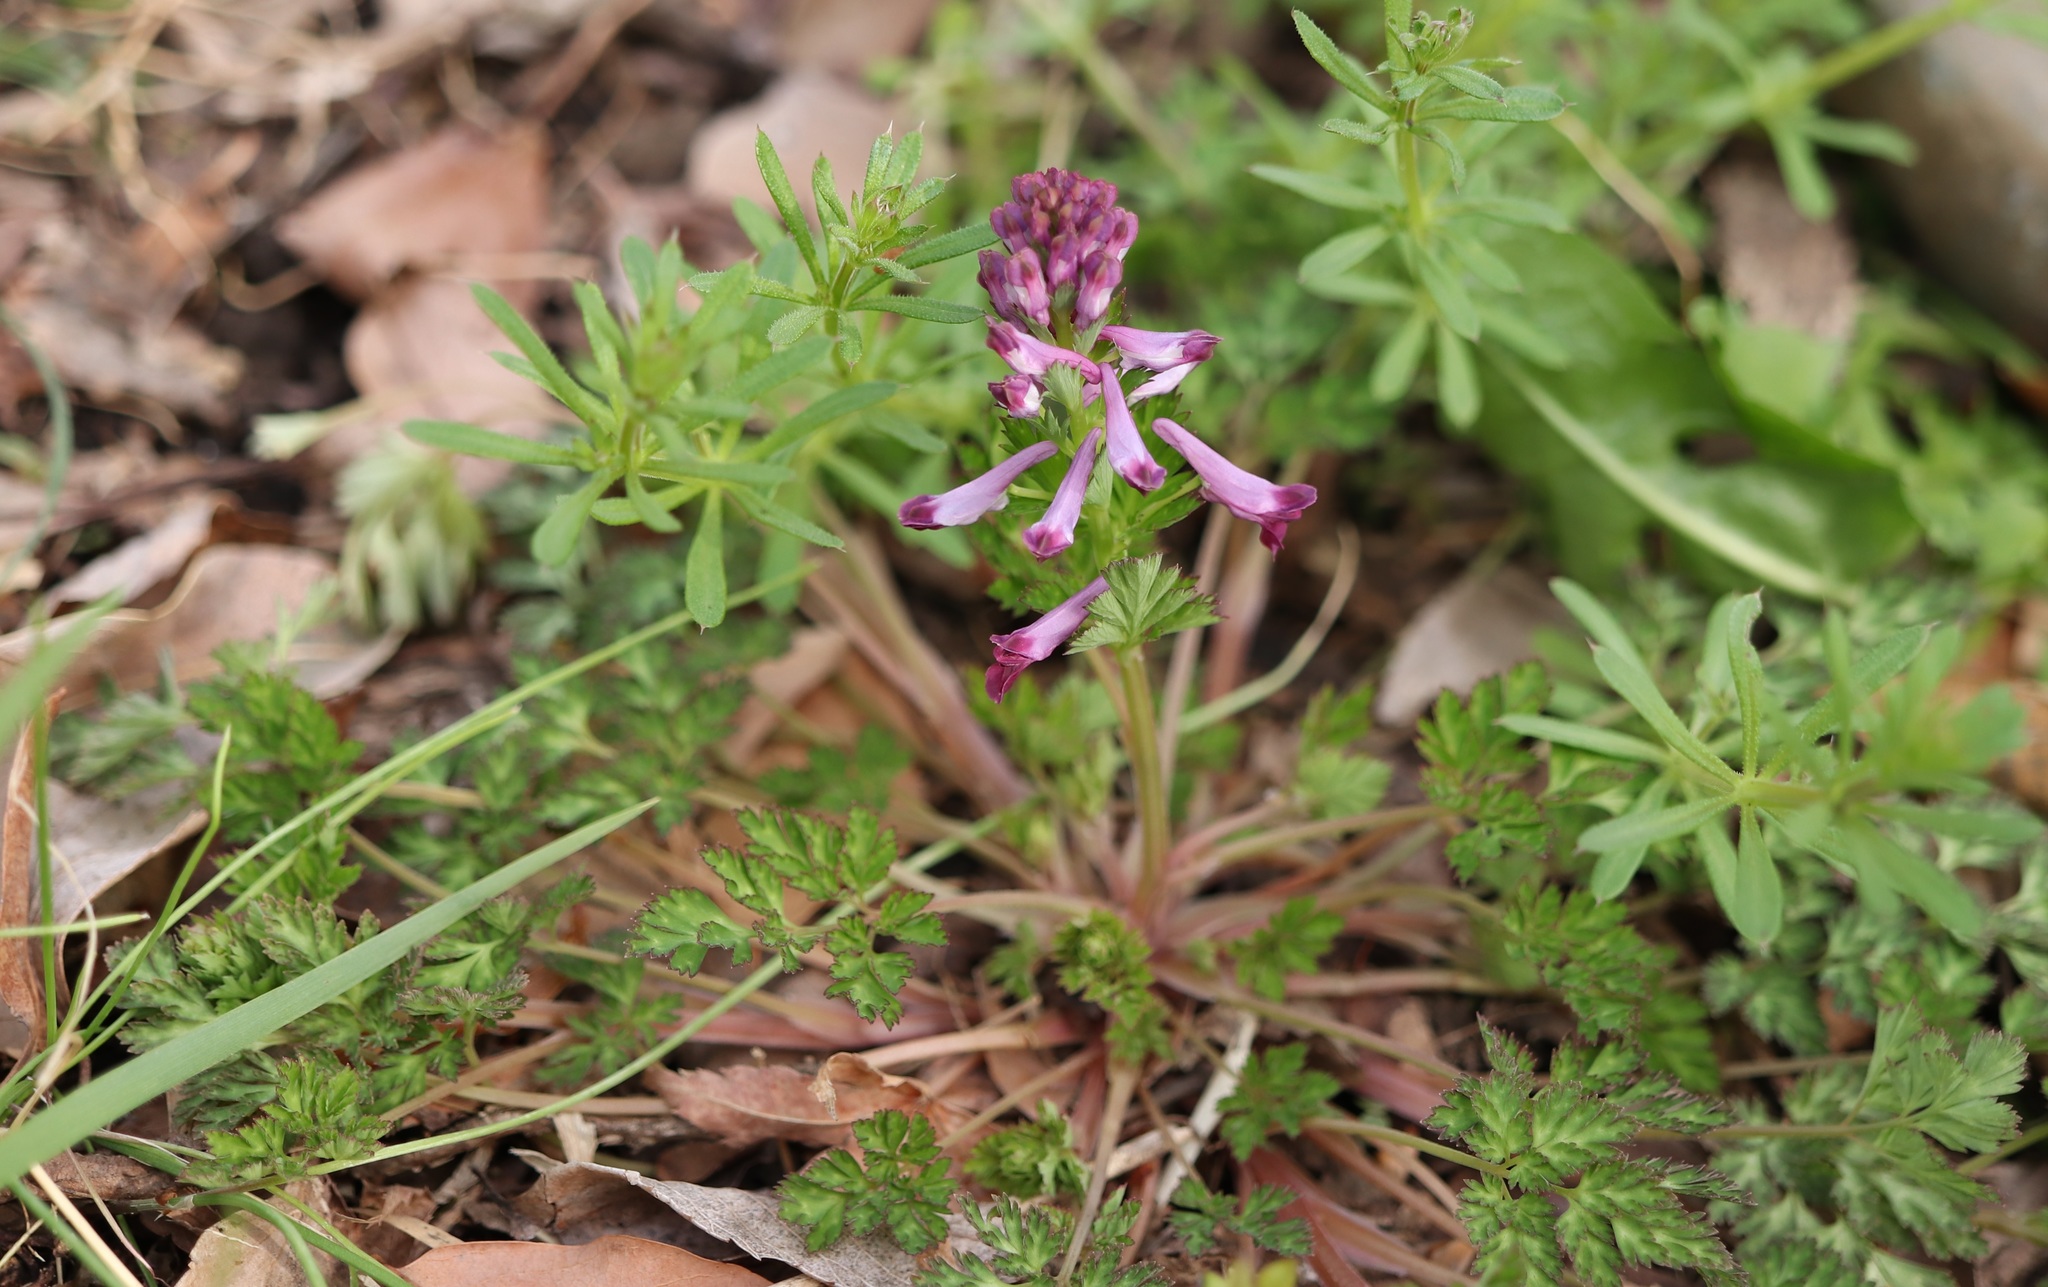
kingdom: Plantae
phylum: Tracheophyta
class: Magnoliopsida
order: Ranunculales
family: Papaveraceae
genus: Corydalis
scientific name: Corydalis incisa
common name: Incised fumewort
